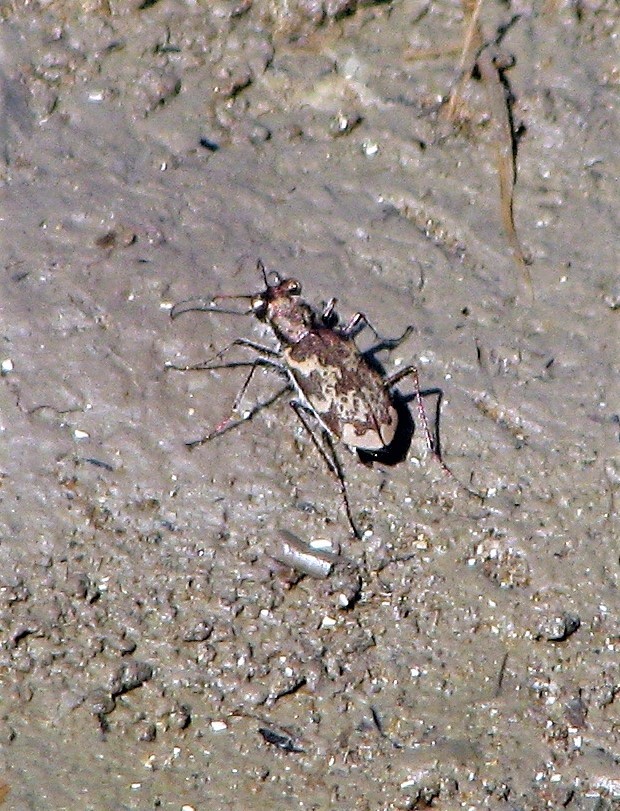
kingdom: Animalia
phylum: Arthropoda
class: Insecta
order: Coleoptera
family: Carabidae
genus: Cylindera
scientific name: Cylindera apiata
